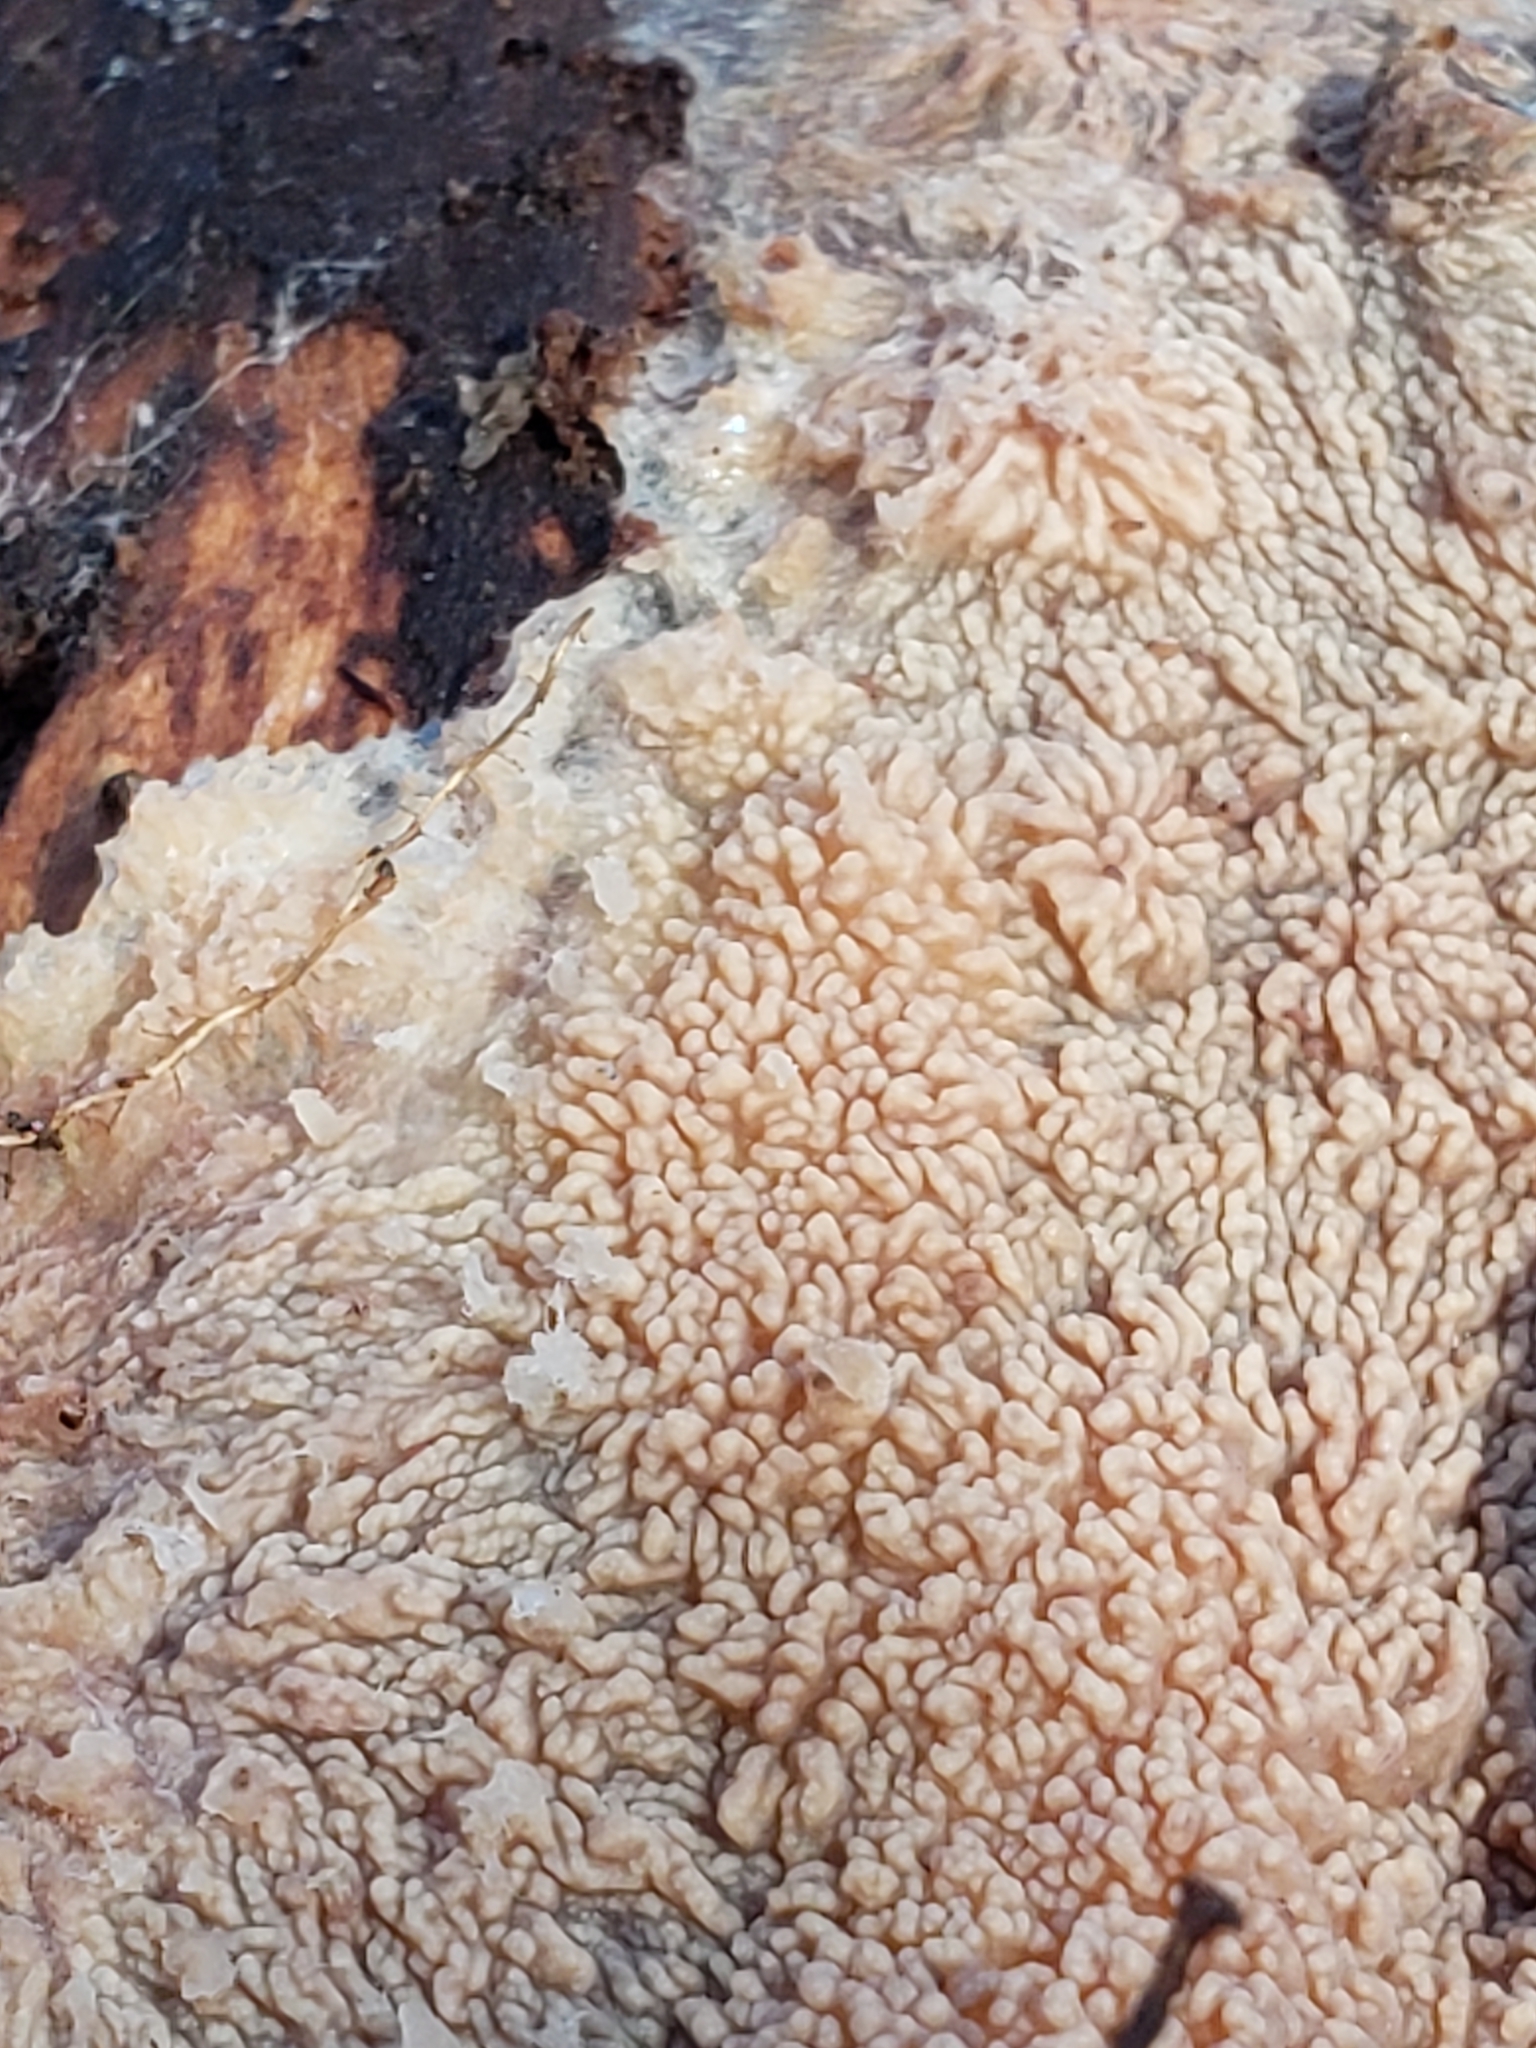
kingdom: Fungi
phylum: Basidiomycota
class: Agaricomycetes
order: Polyporales
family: Meruliaceae
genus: Phlebia
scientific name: Phlebia radiata
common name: Wrinkled crust
